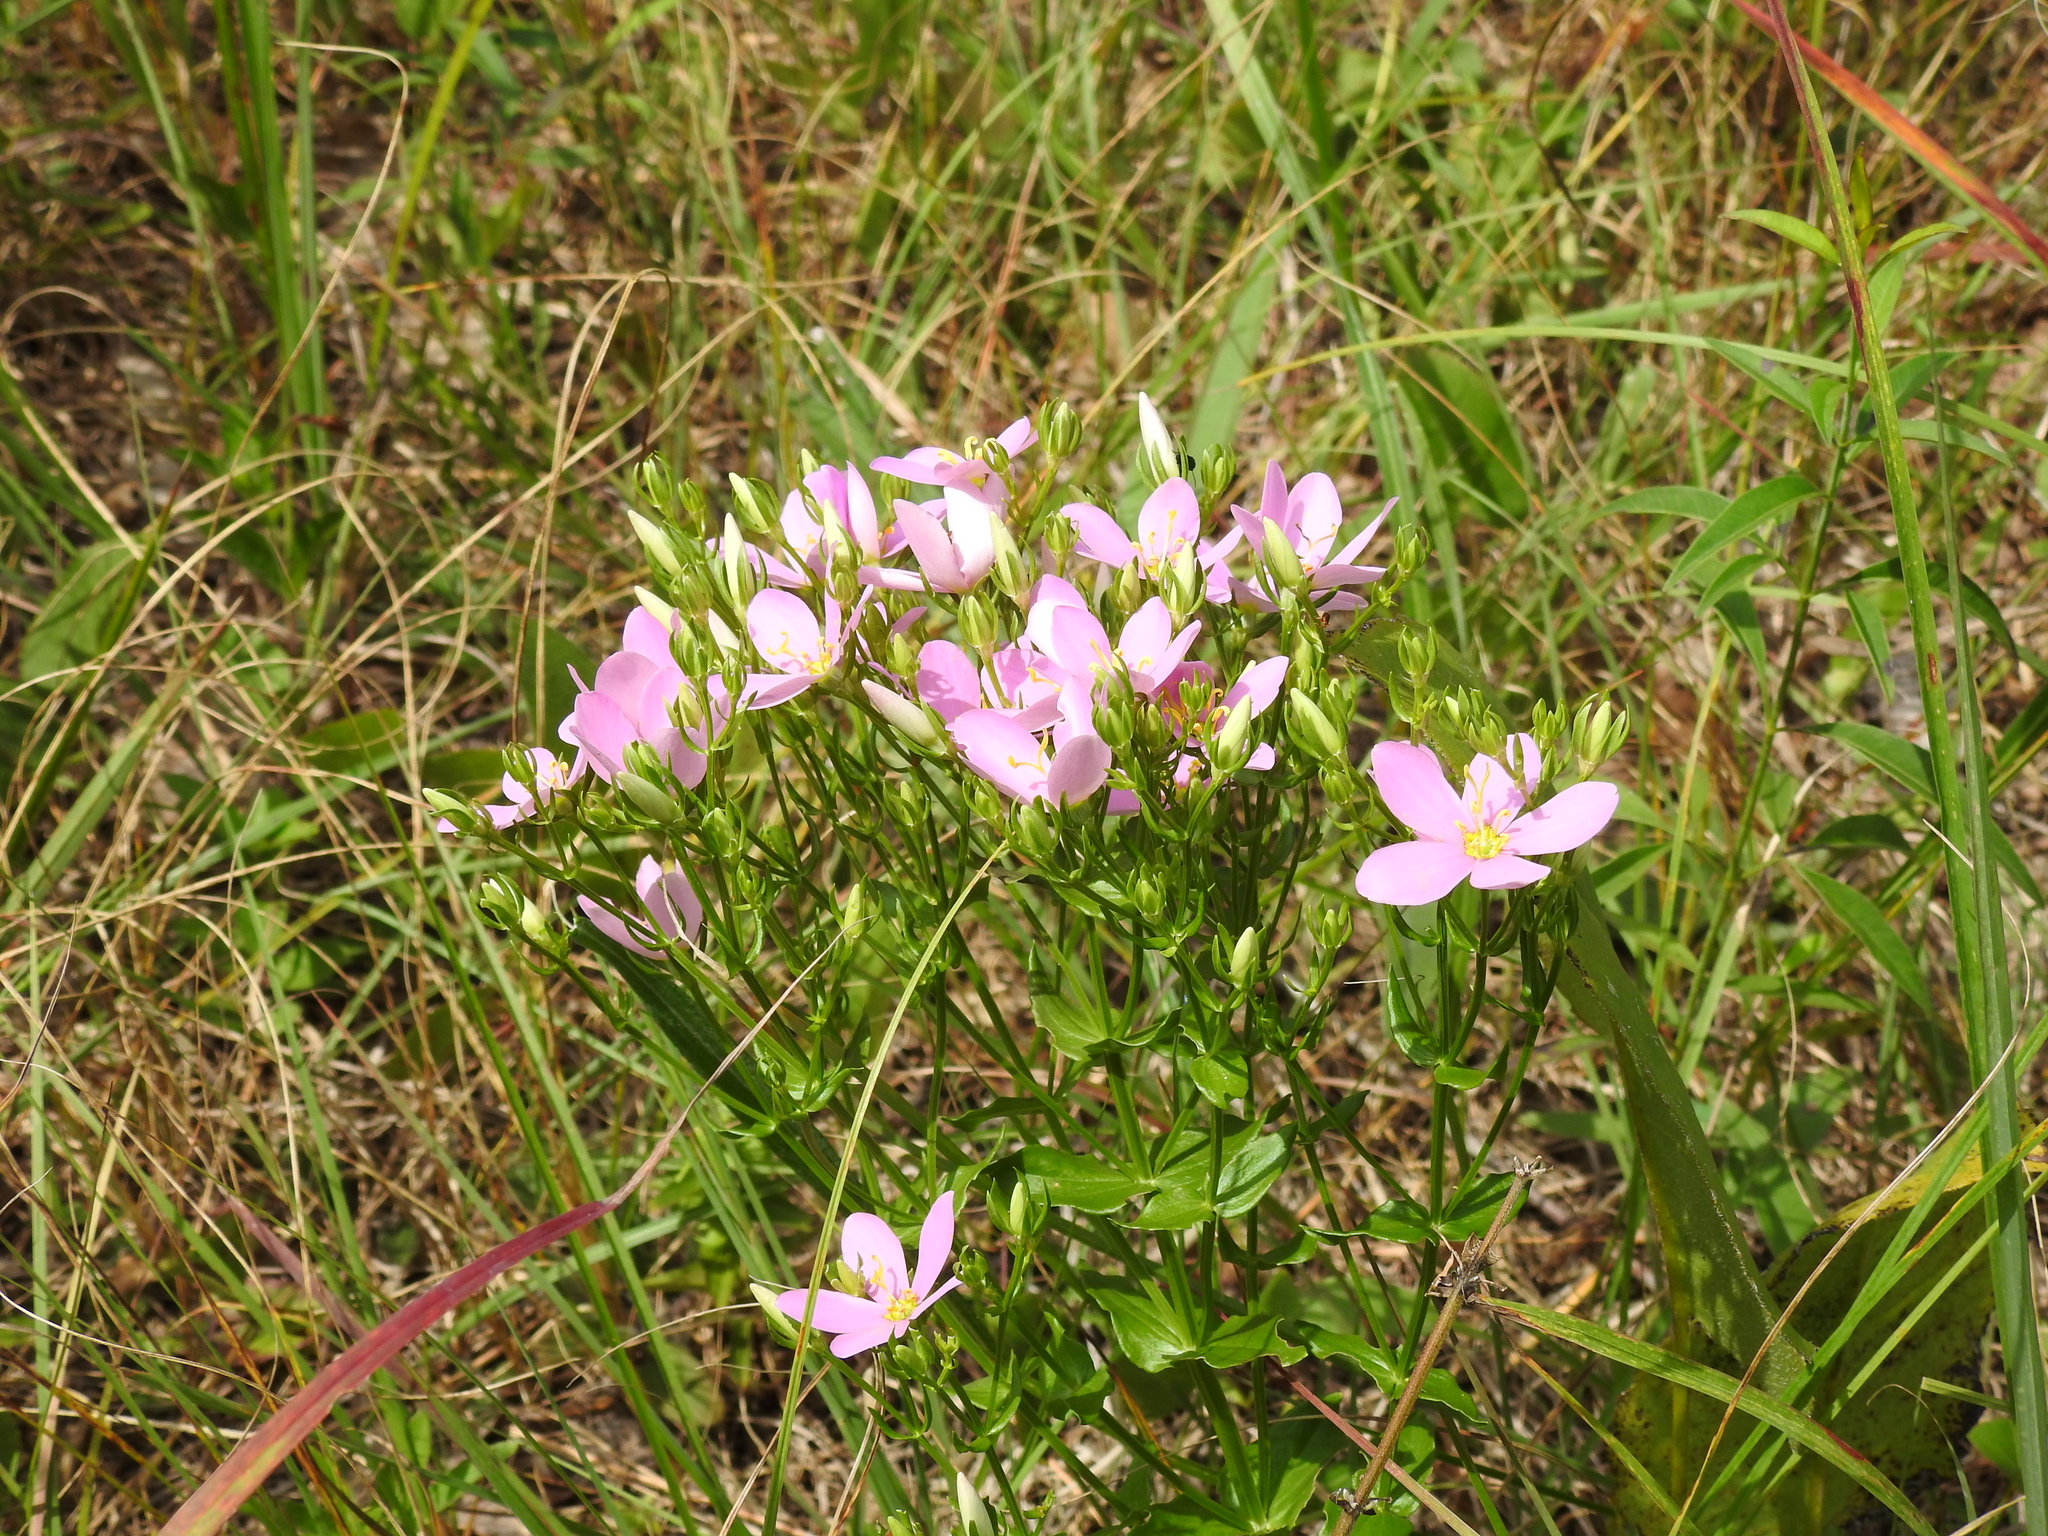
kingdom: Plantae
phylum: Tracheophyta
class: Magnoliopsida
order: Gentianales
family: Gentianaceae
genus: Sabatia
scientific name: Sabatia angularis
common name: Rose-pink
